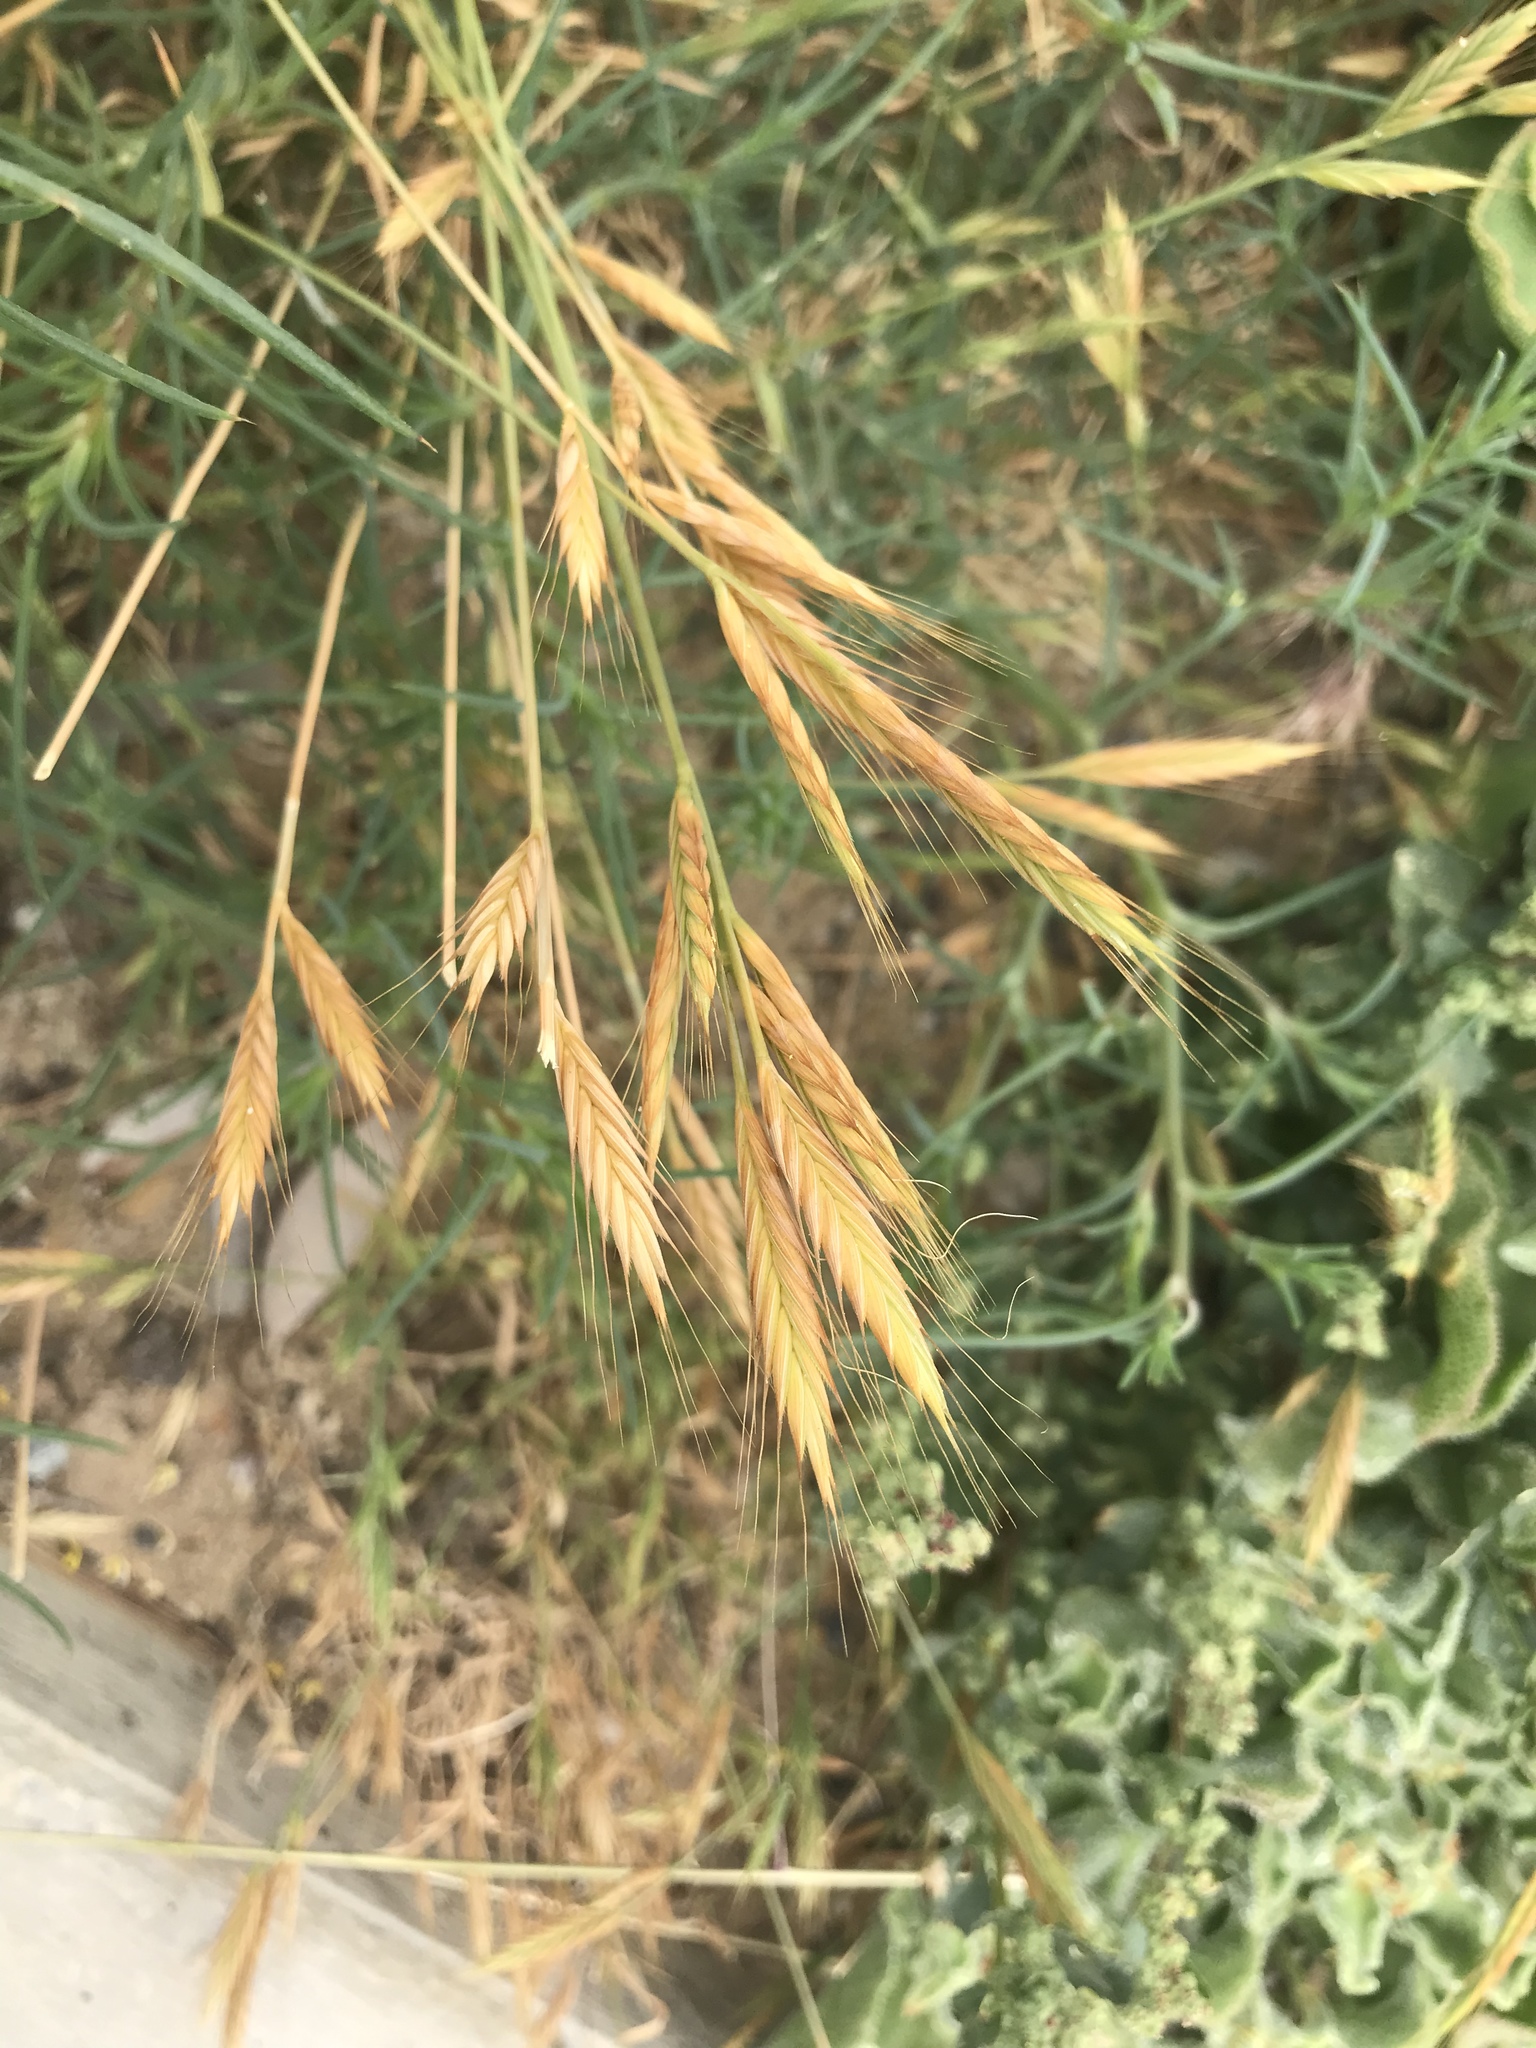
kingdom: Plantae
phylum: Tracheophyta
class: Liliopsida
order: Poales
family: Poaceae
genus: Brachypodium
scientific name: Brachypodium distachyon
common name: Stiff brome
